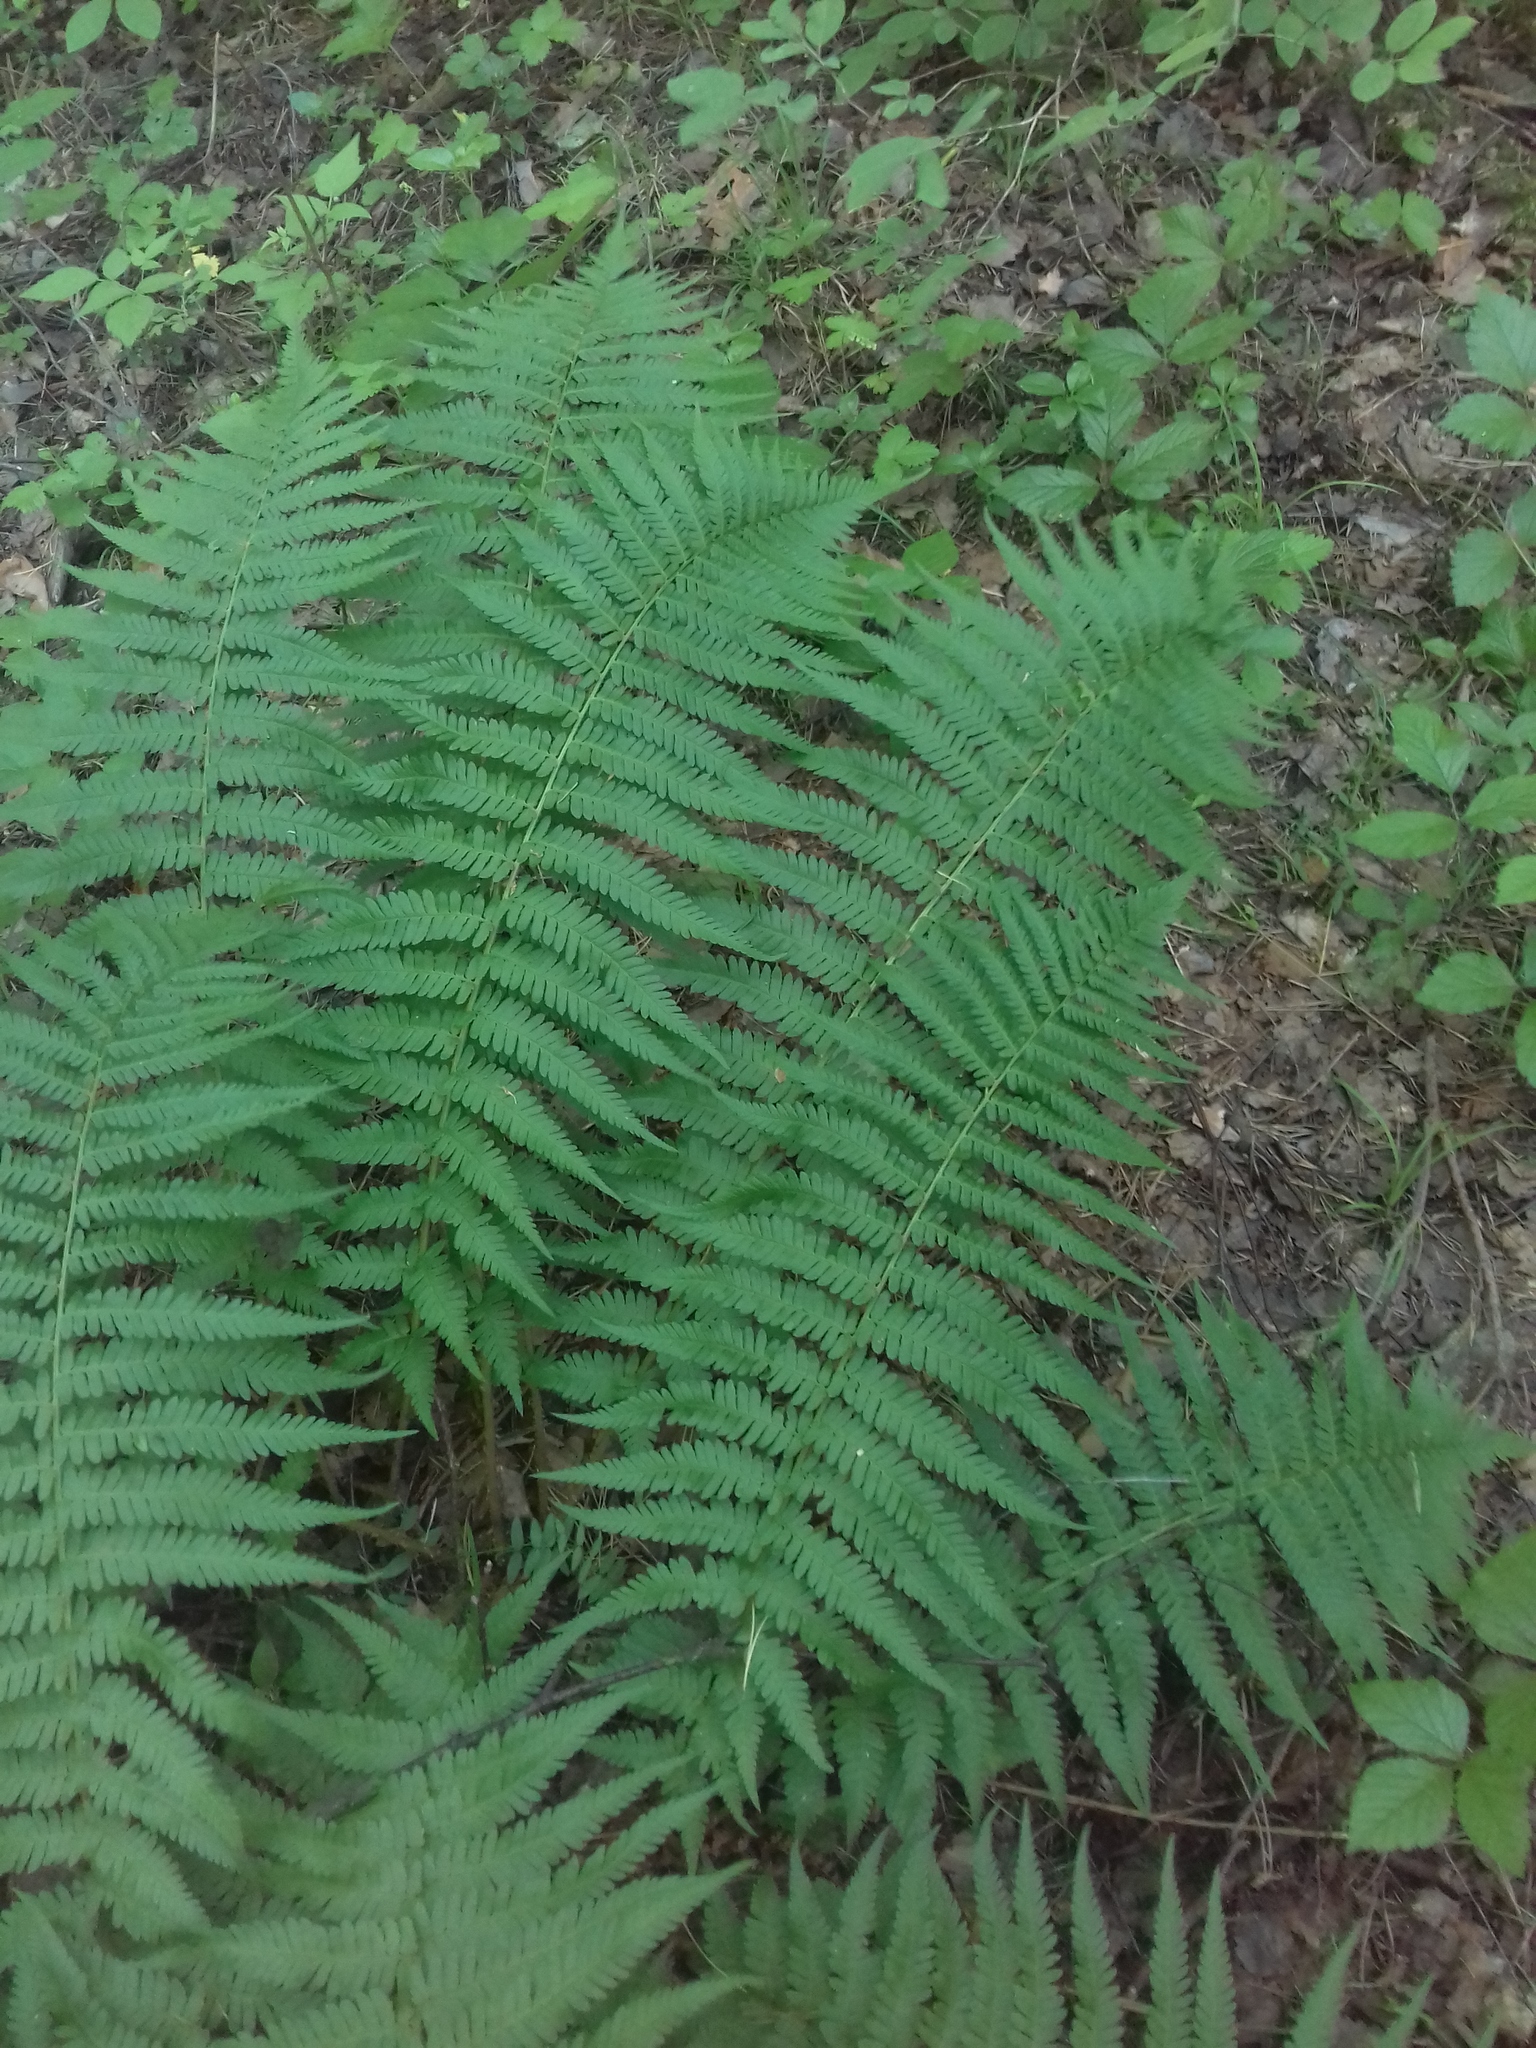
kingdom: Plantae
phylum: Tracheophyta
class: Polypodiopsida
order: Polypodiales
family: Dryopteridaceae
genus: Dryopteris
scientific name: Dryopteris filix-mas
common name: Male fern
